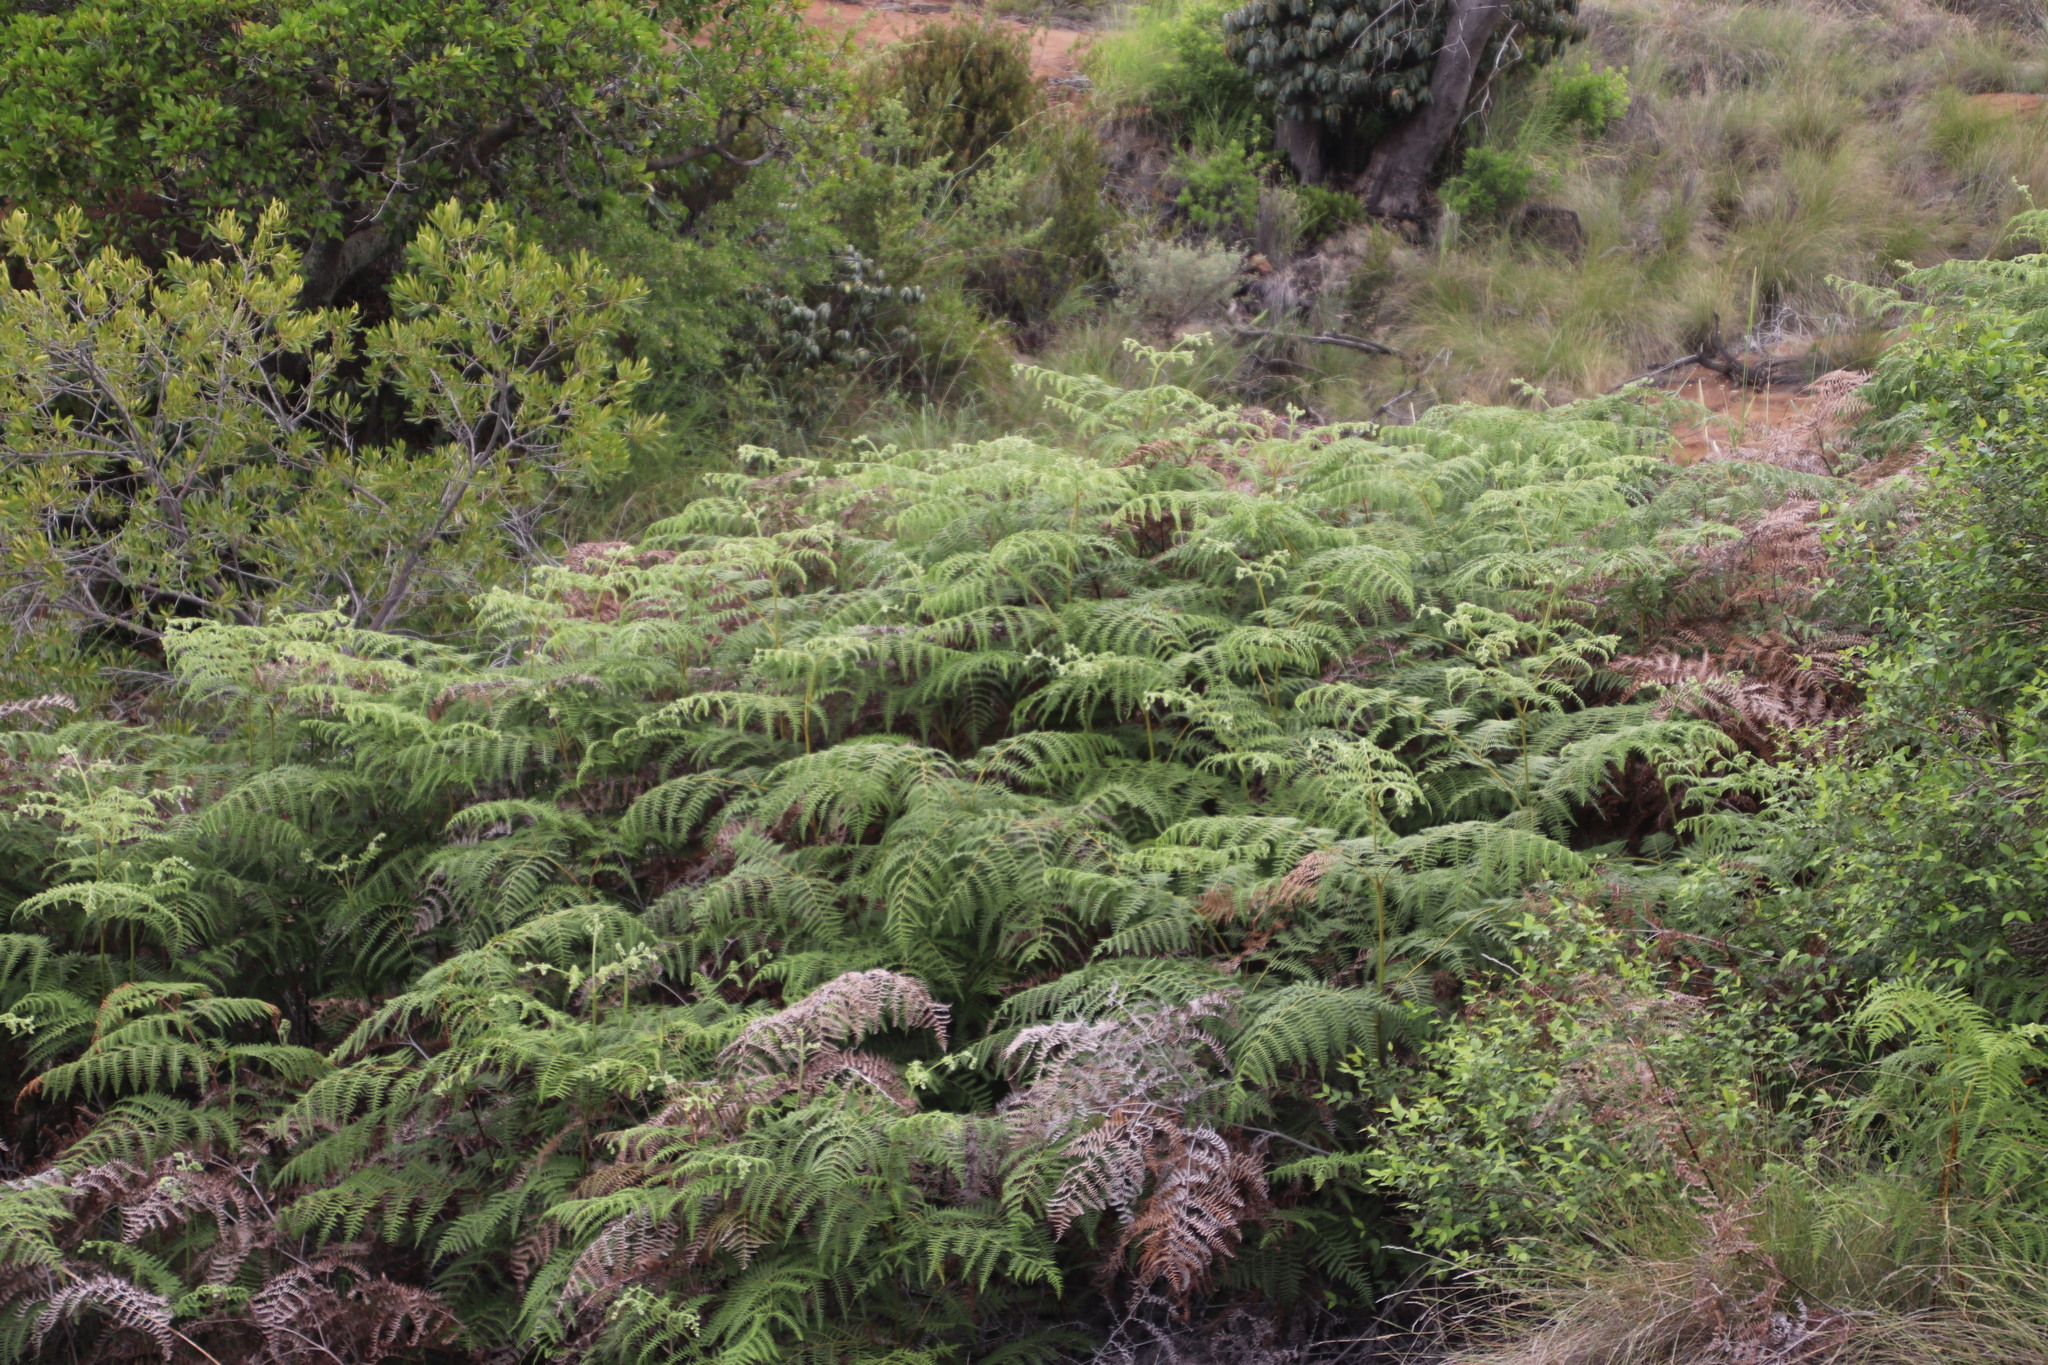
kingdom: Plantae
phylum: Tracheophyta
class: Polypodiopsida
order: Polypodiales
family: Dennstaedtiaceae
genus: Pteridium
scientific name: Pteridium aquilinum
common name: Bracken
